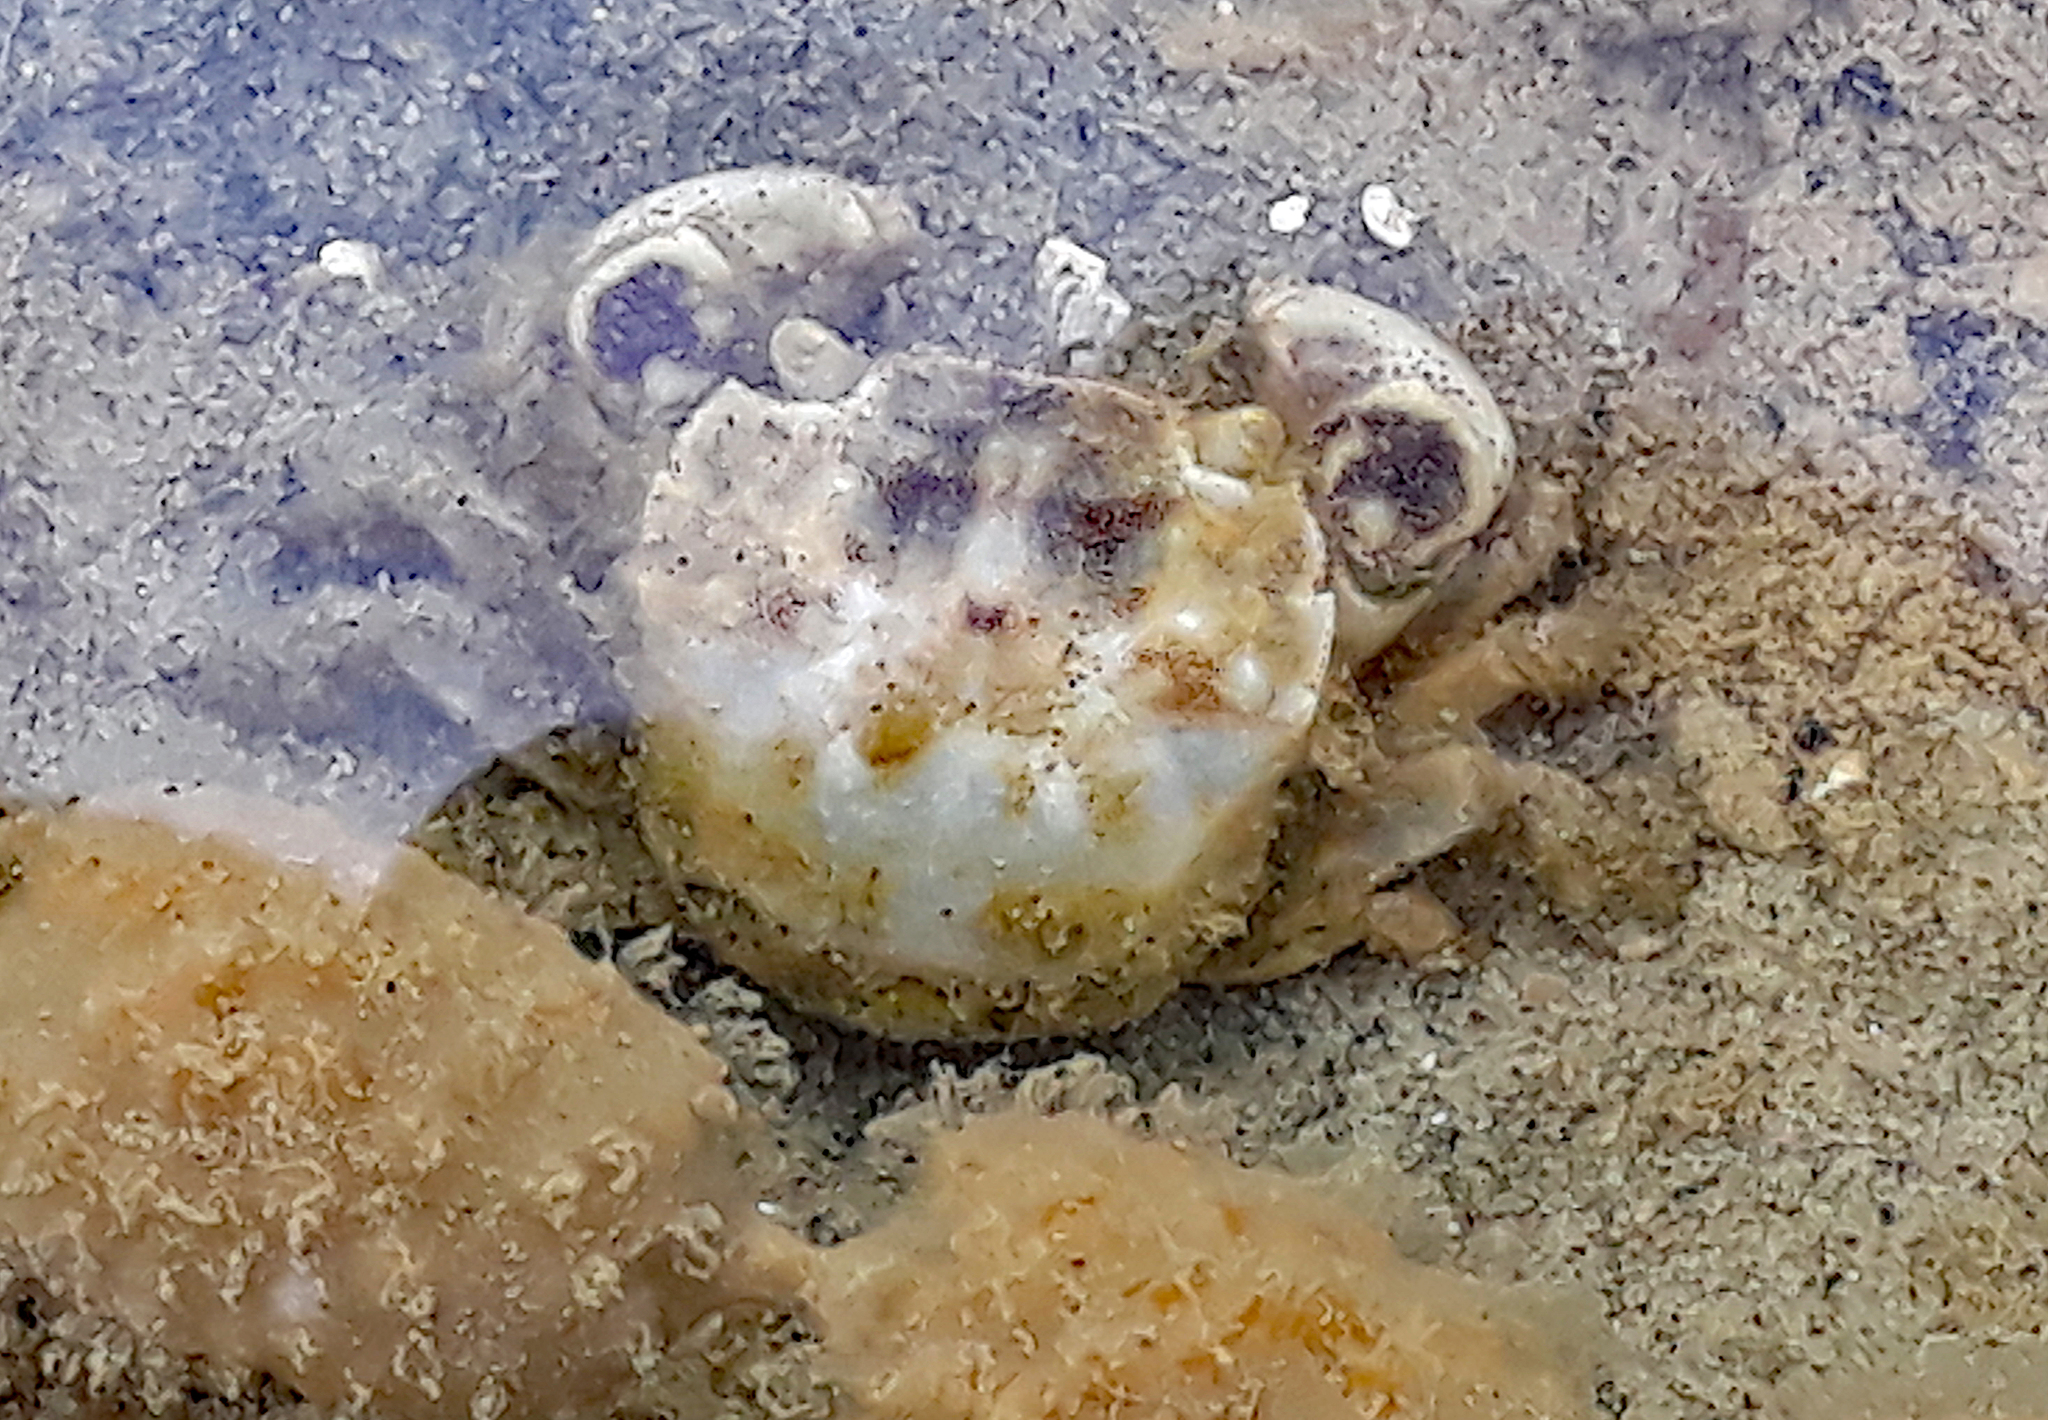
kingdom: Animalia
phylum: Arthropoda
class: Malacostraca
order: Decapoda
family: Varunidae
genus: Hemigrapsus
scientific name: Hemigrapsus crenulatus
